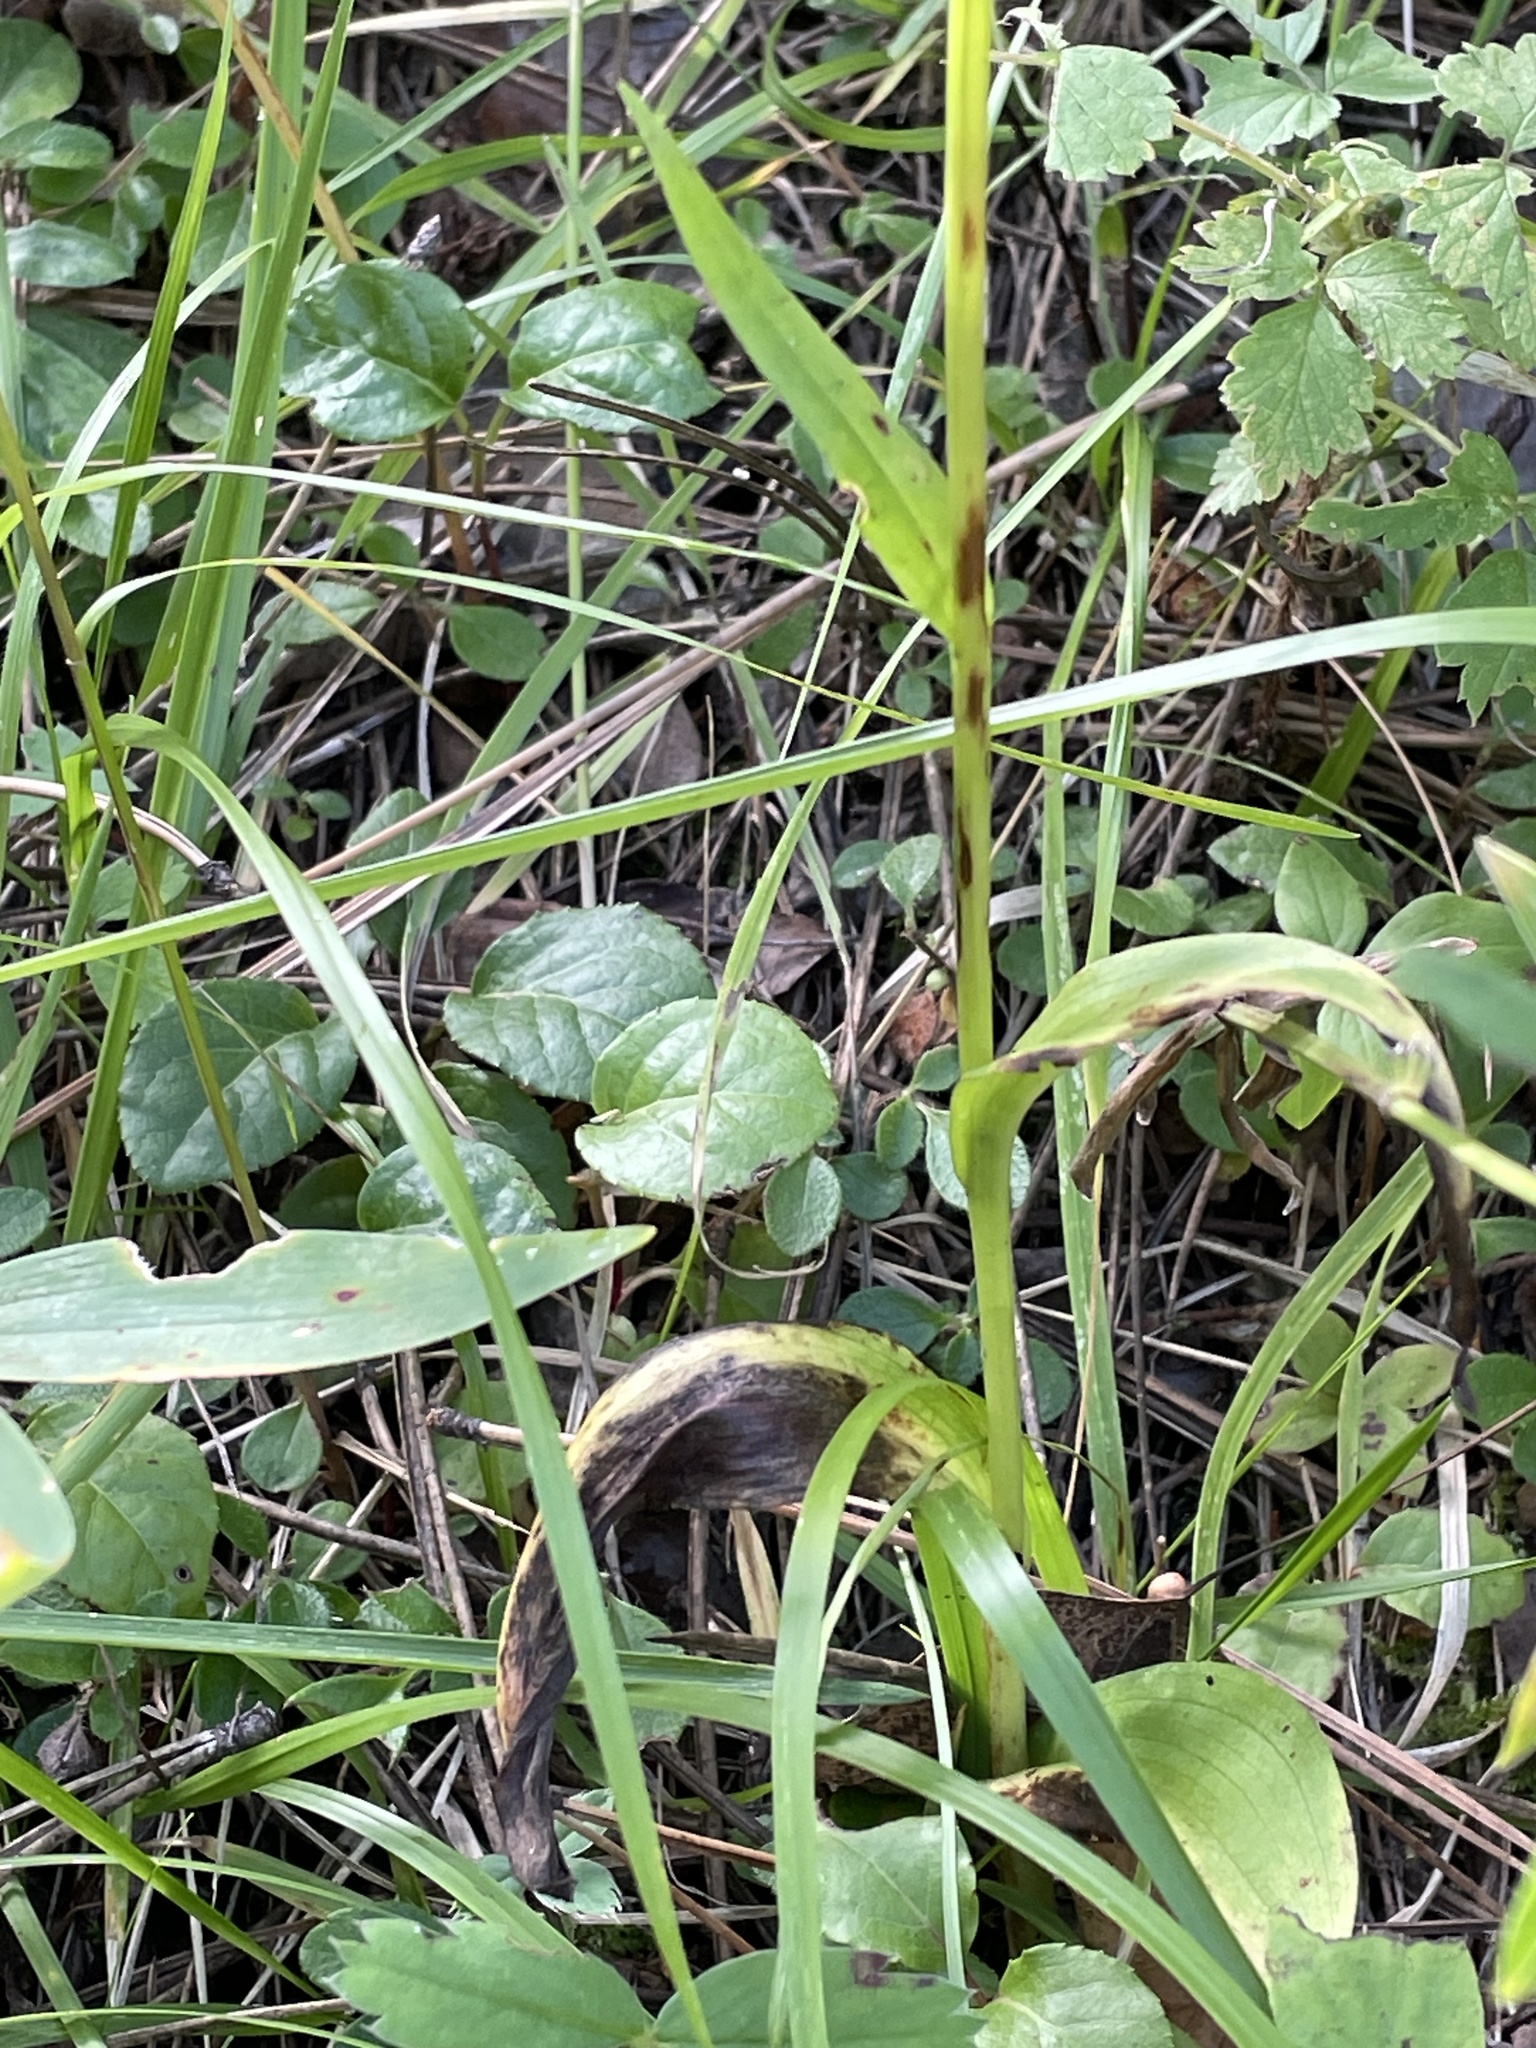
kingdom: Plantae
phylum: Tracheophyta
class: Liliopsida
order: Asparagales
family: Orchidaceae
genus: Dactylorhiza
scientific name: Dactylorhiza viridis
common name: Longbract frog orchid
